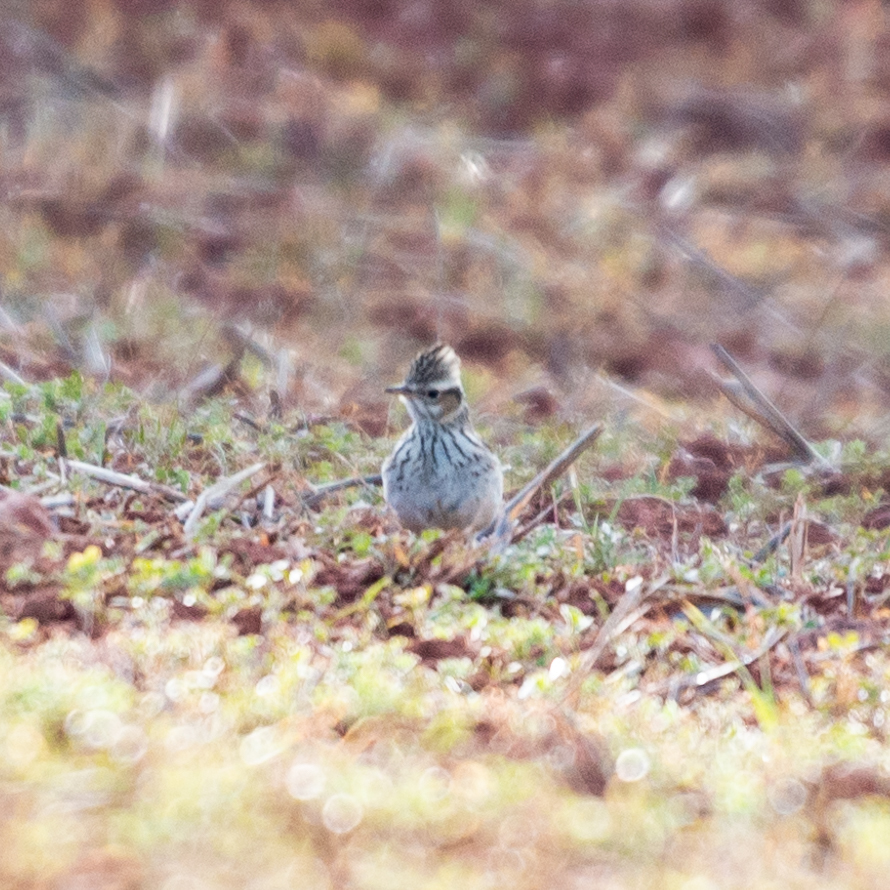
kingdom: Animalia
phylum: Chordata
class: Aves
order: Passeriformes
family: Alaudidae
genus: Lullula
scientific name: Lullula arborea
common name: Woodlark
